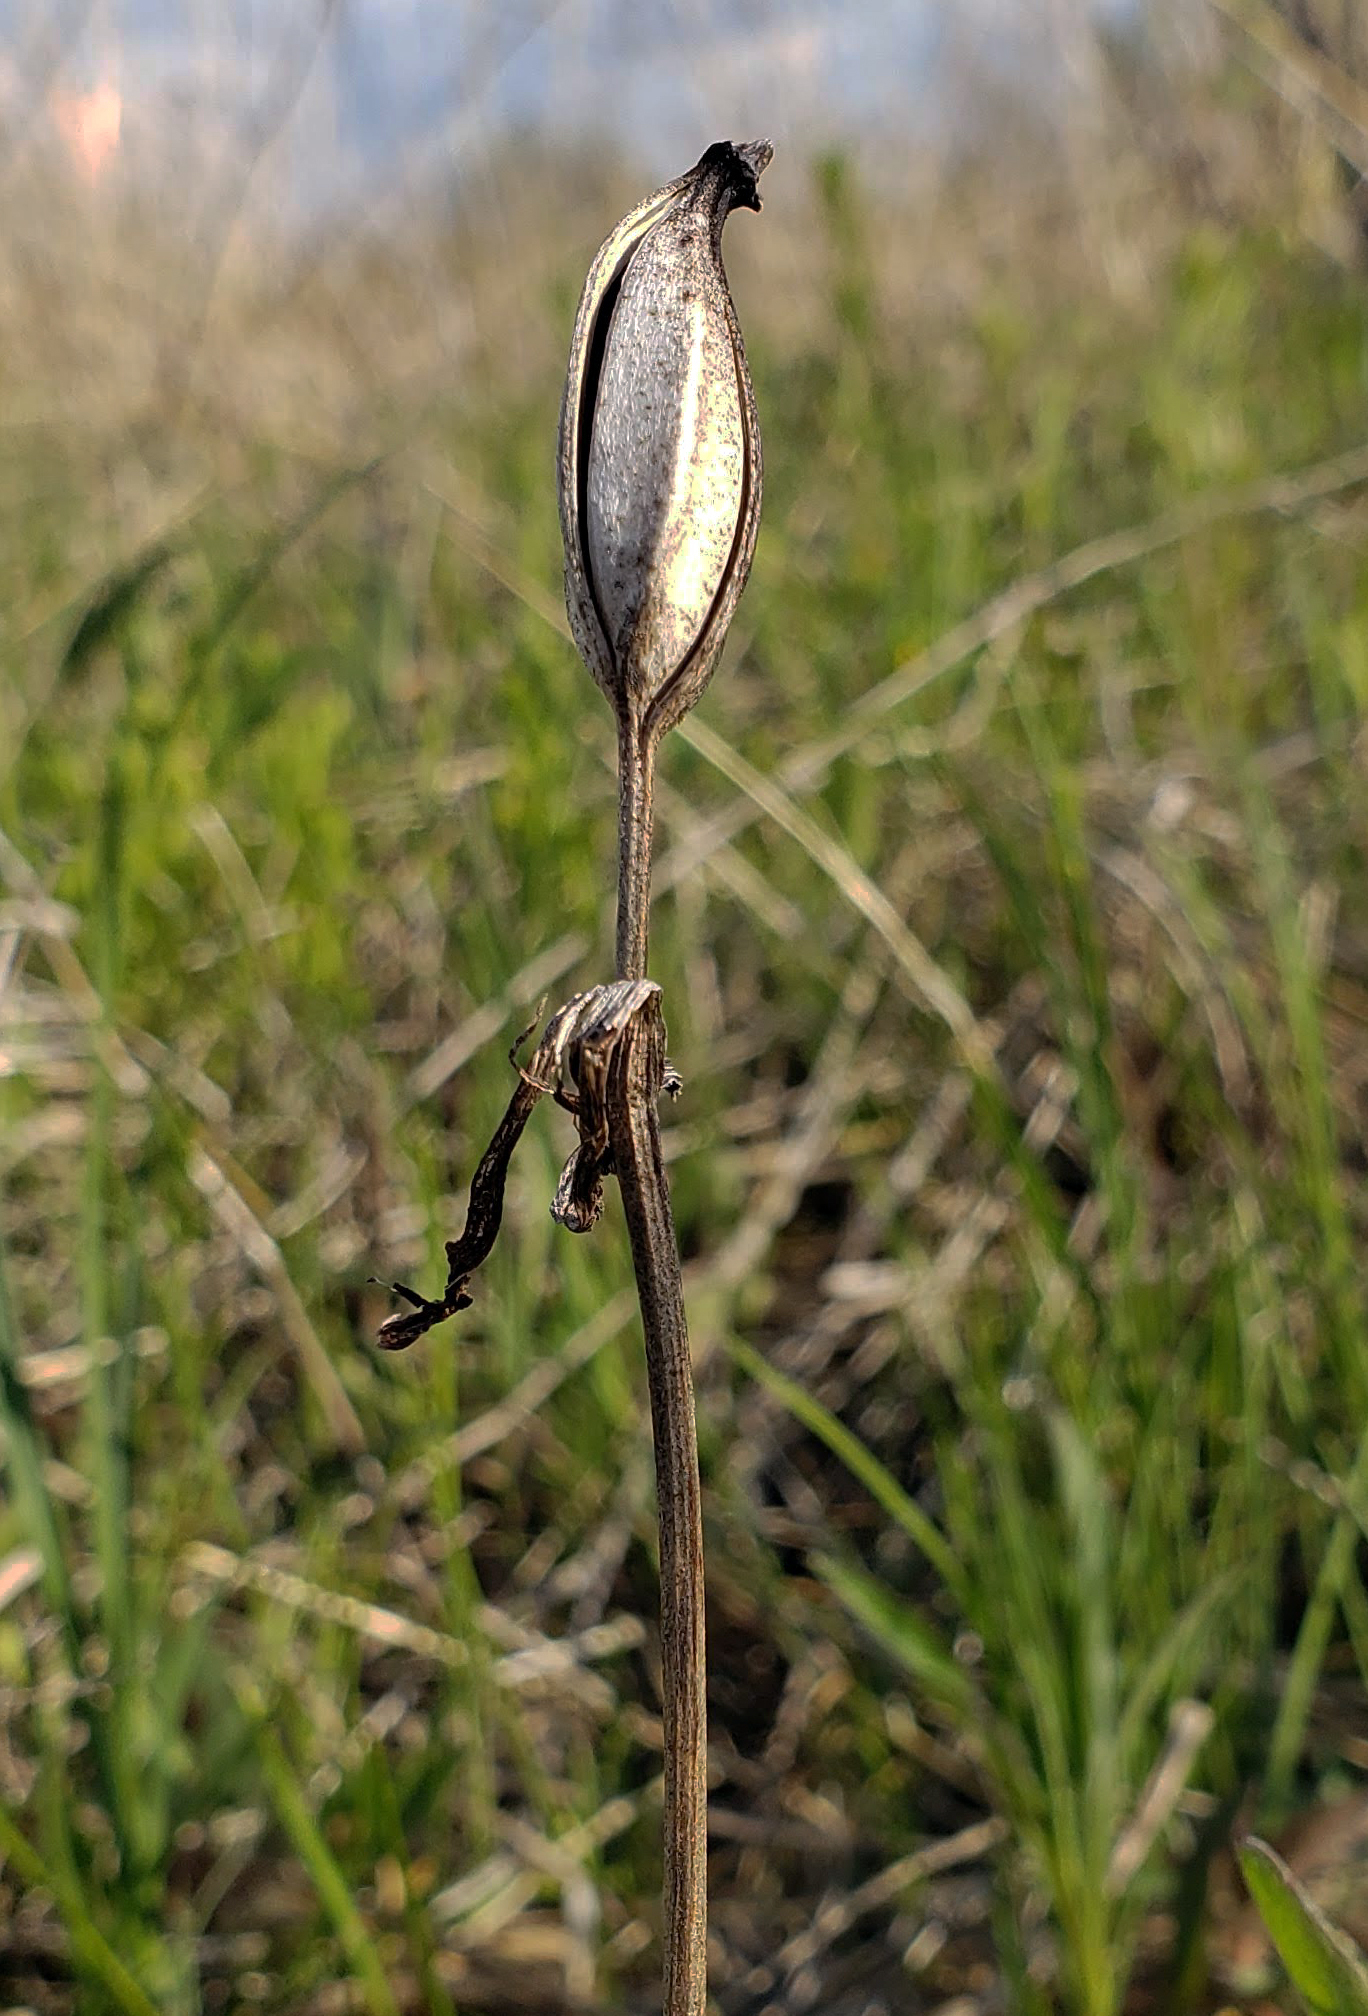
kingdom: Plantae
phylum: Tracheophyta
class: Liliopsida
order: Asparagales
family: Orchidaceae
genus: Cypripedium
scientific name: Cypripedium candidum
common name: White lady's-slipper
